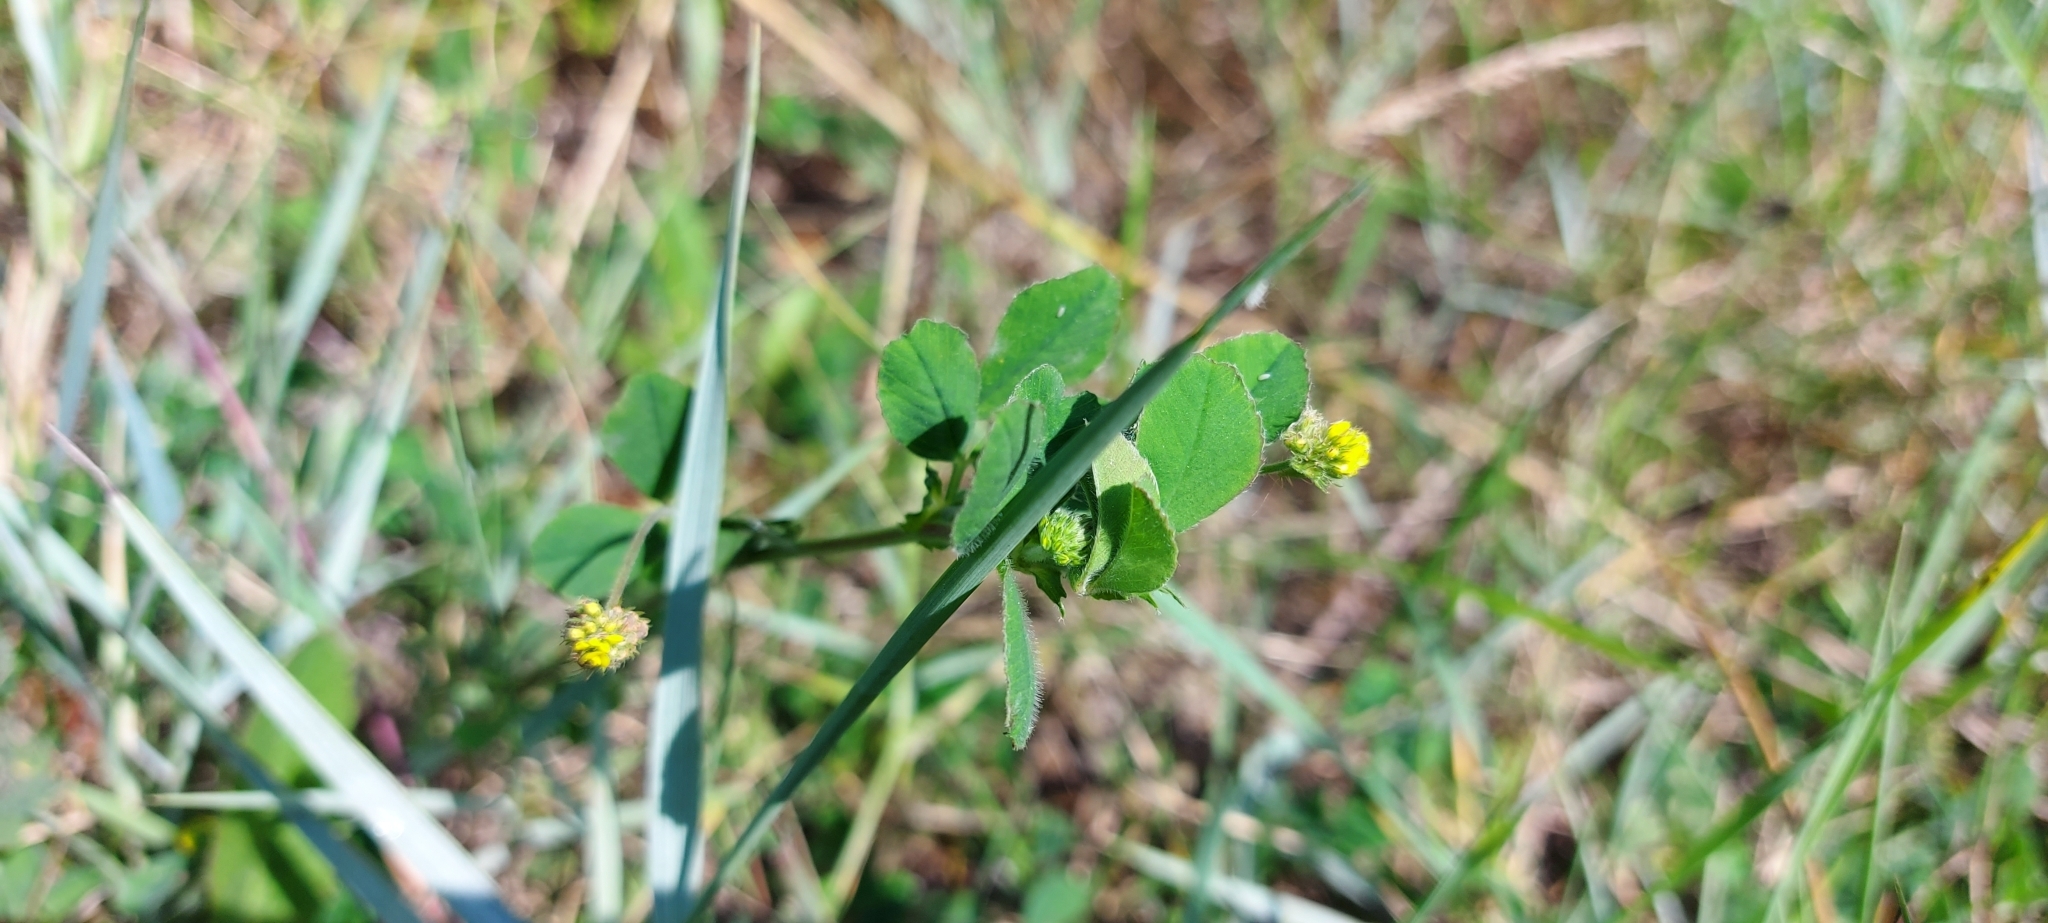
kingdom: Plantae
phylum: Tracheophyta
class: Magnoliopsida
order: Fabales
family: Fabaceae
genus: Medicago
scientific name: Medicago lupulina
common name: Black medick
